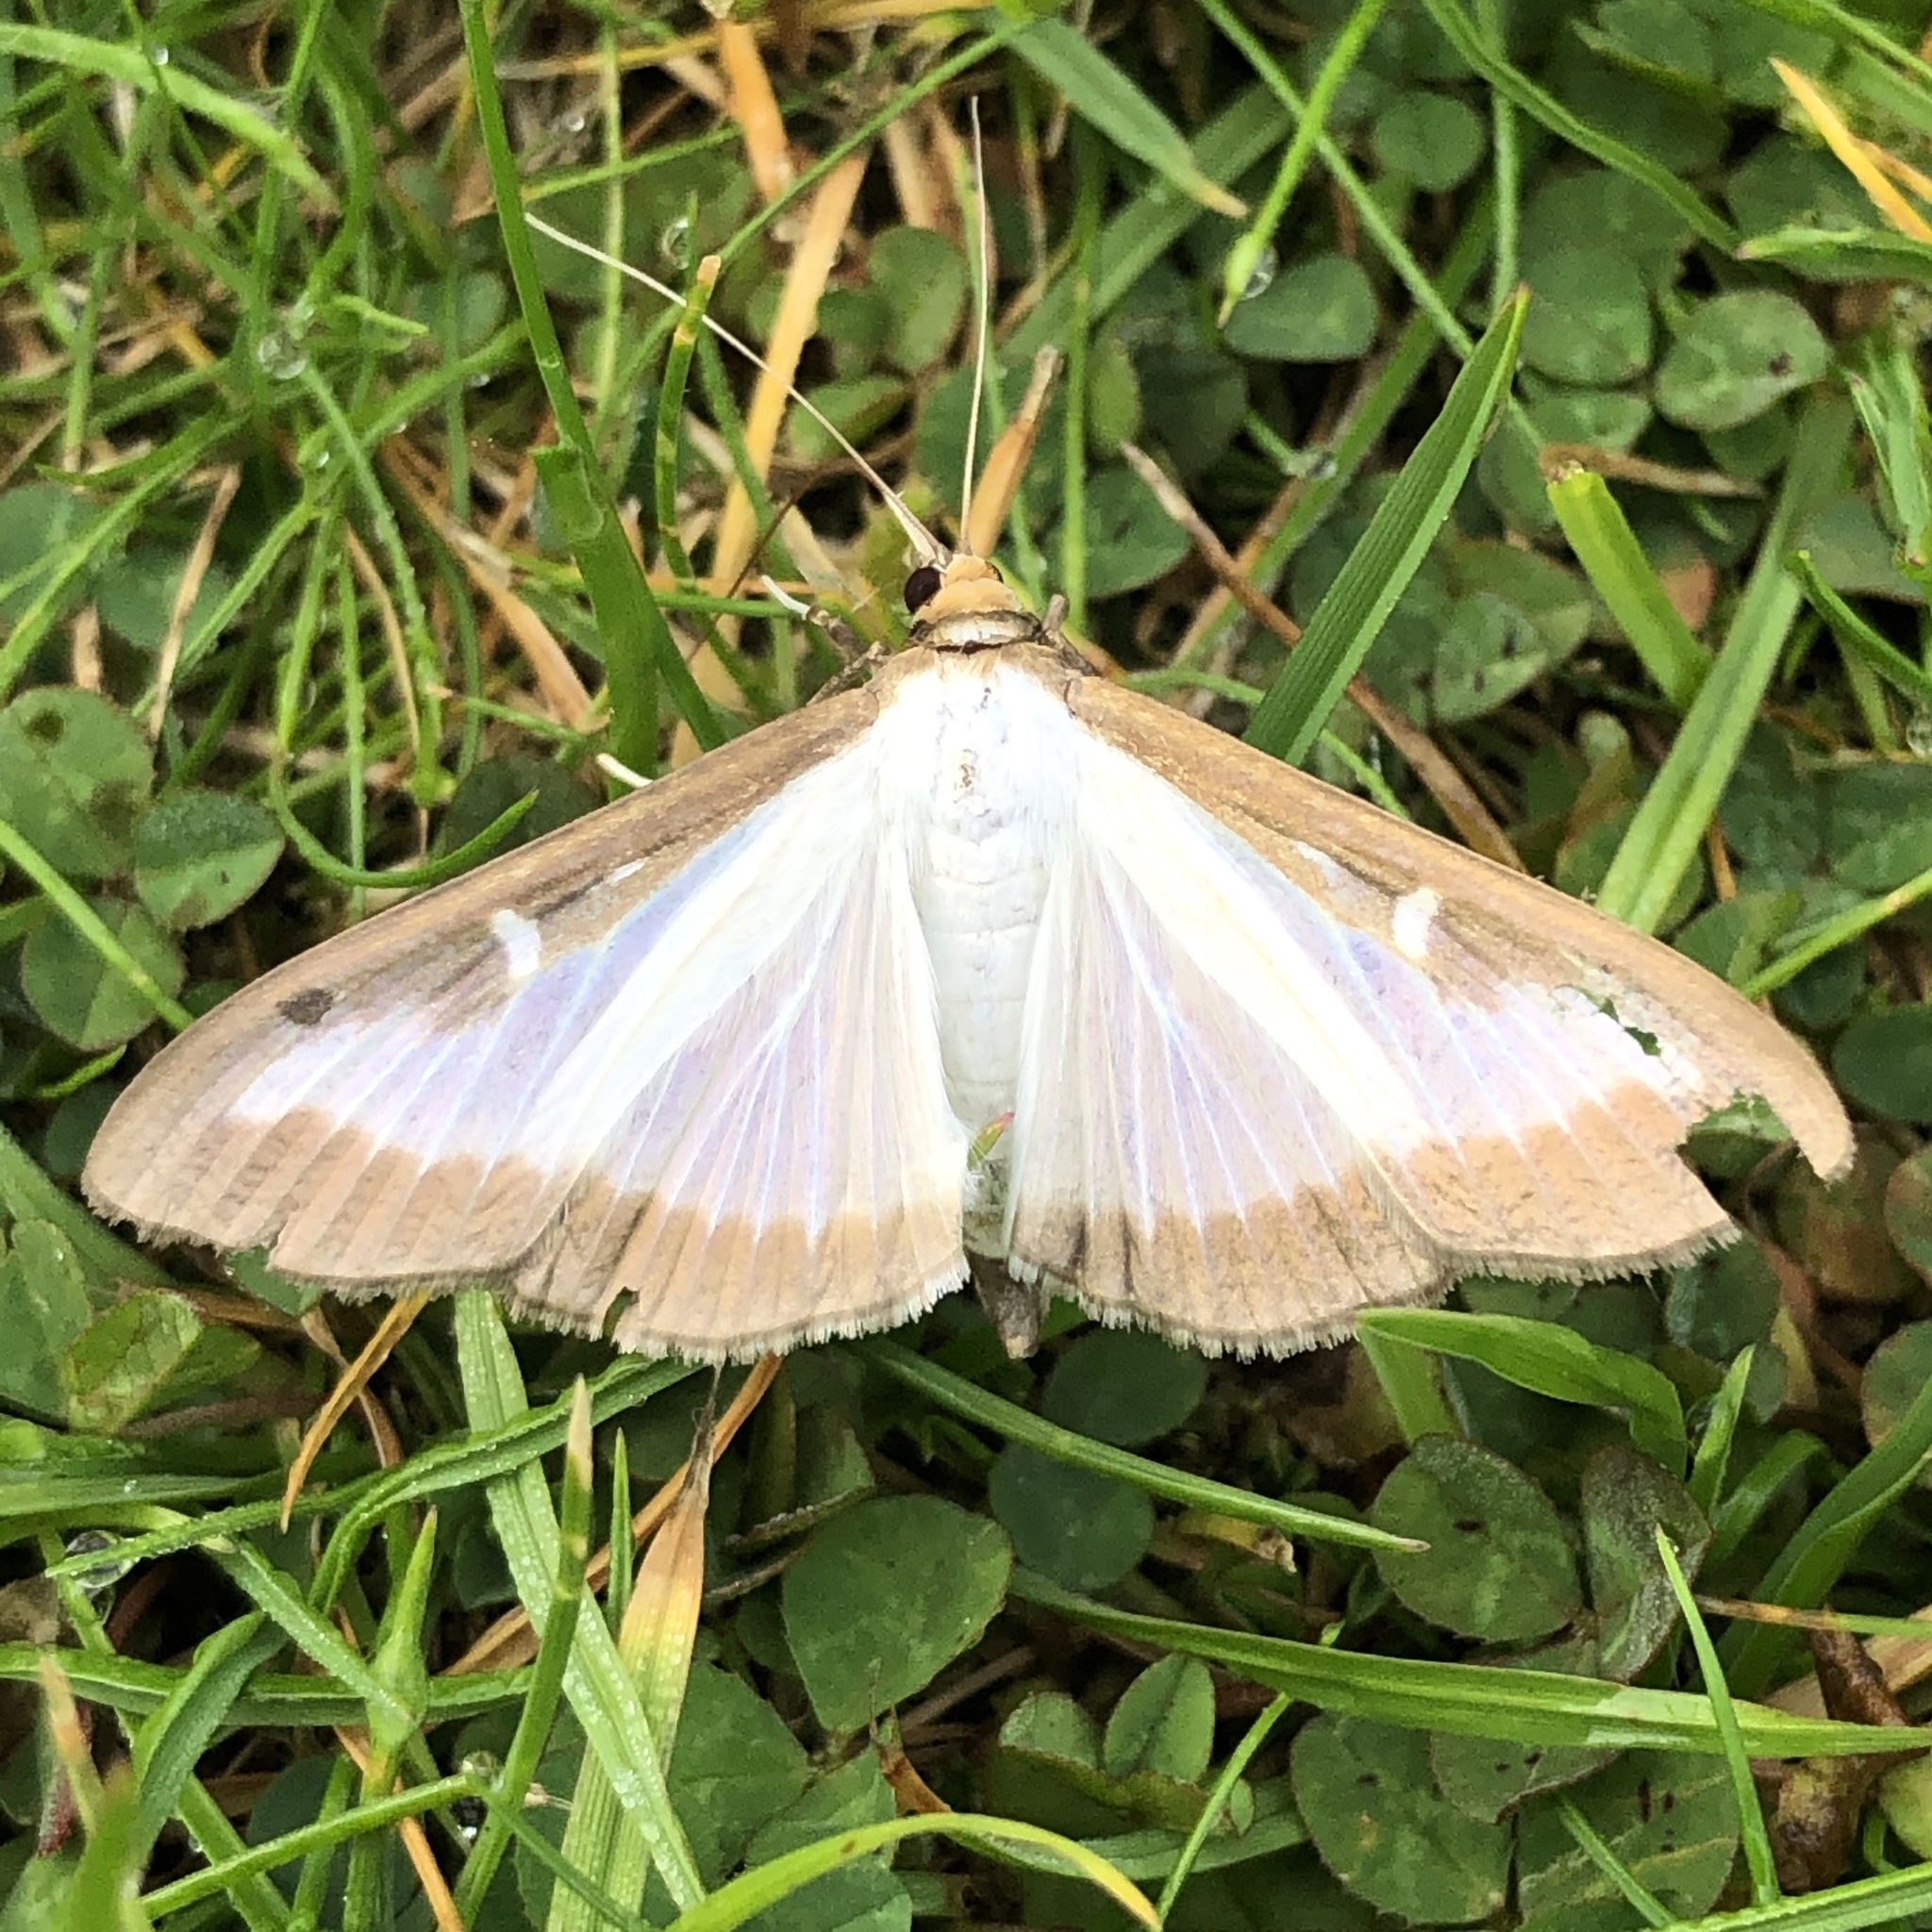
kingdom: Animalia
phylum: Arthropoda
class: Insecta
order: Lepidoptera
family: Crambidae
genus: Cydalima
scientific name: Cydalima perspectalis
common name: Box tree moth
